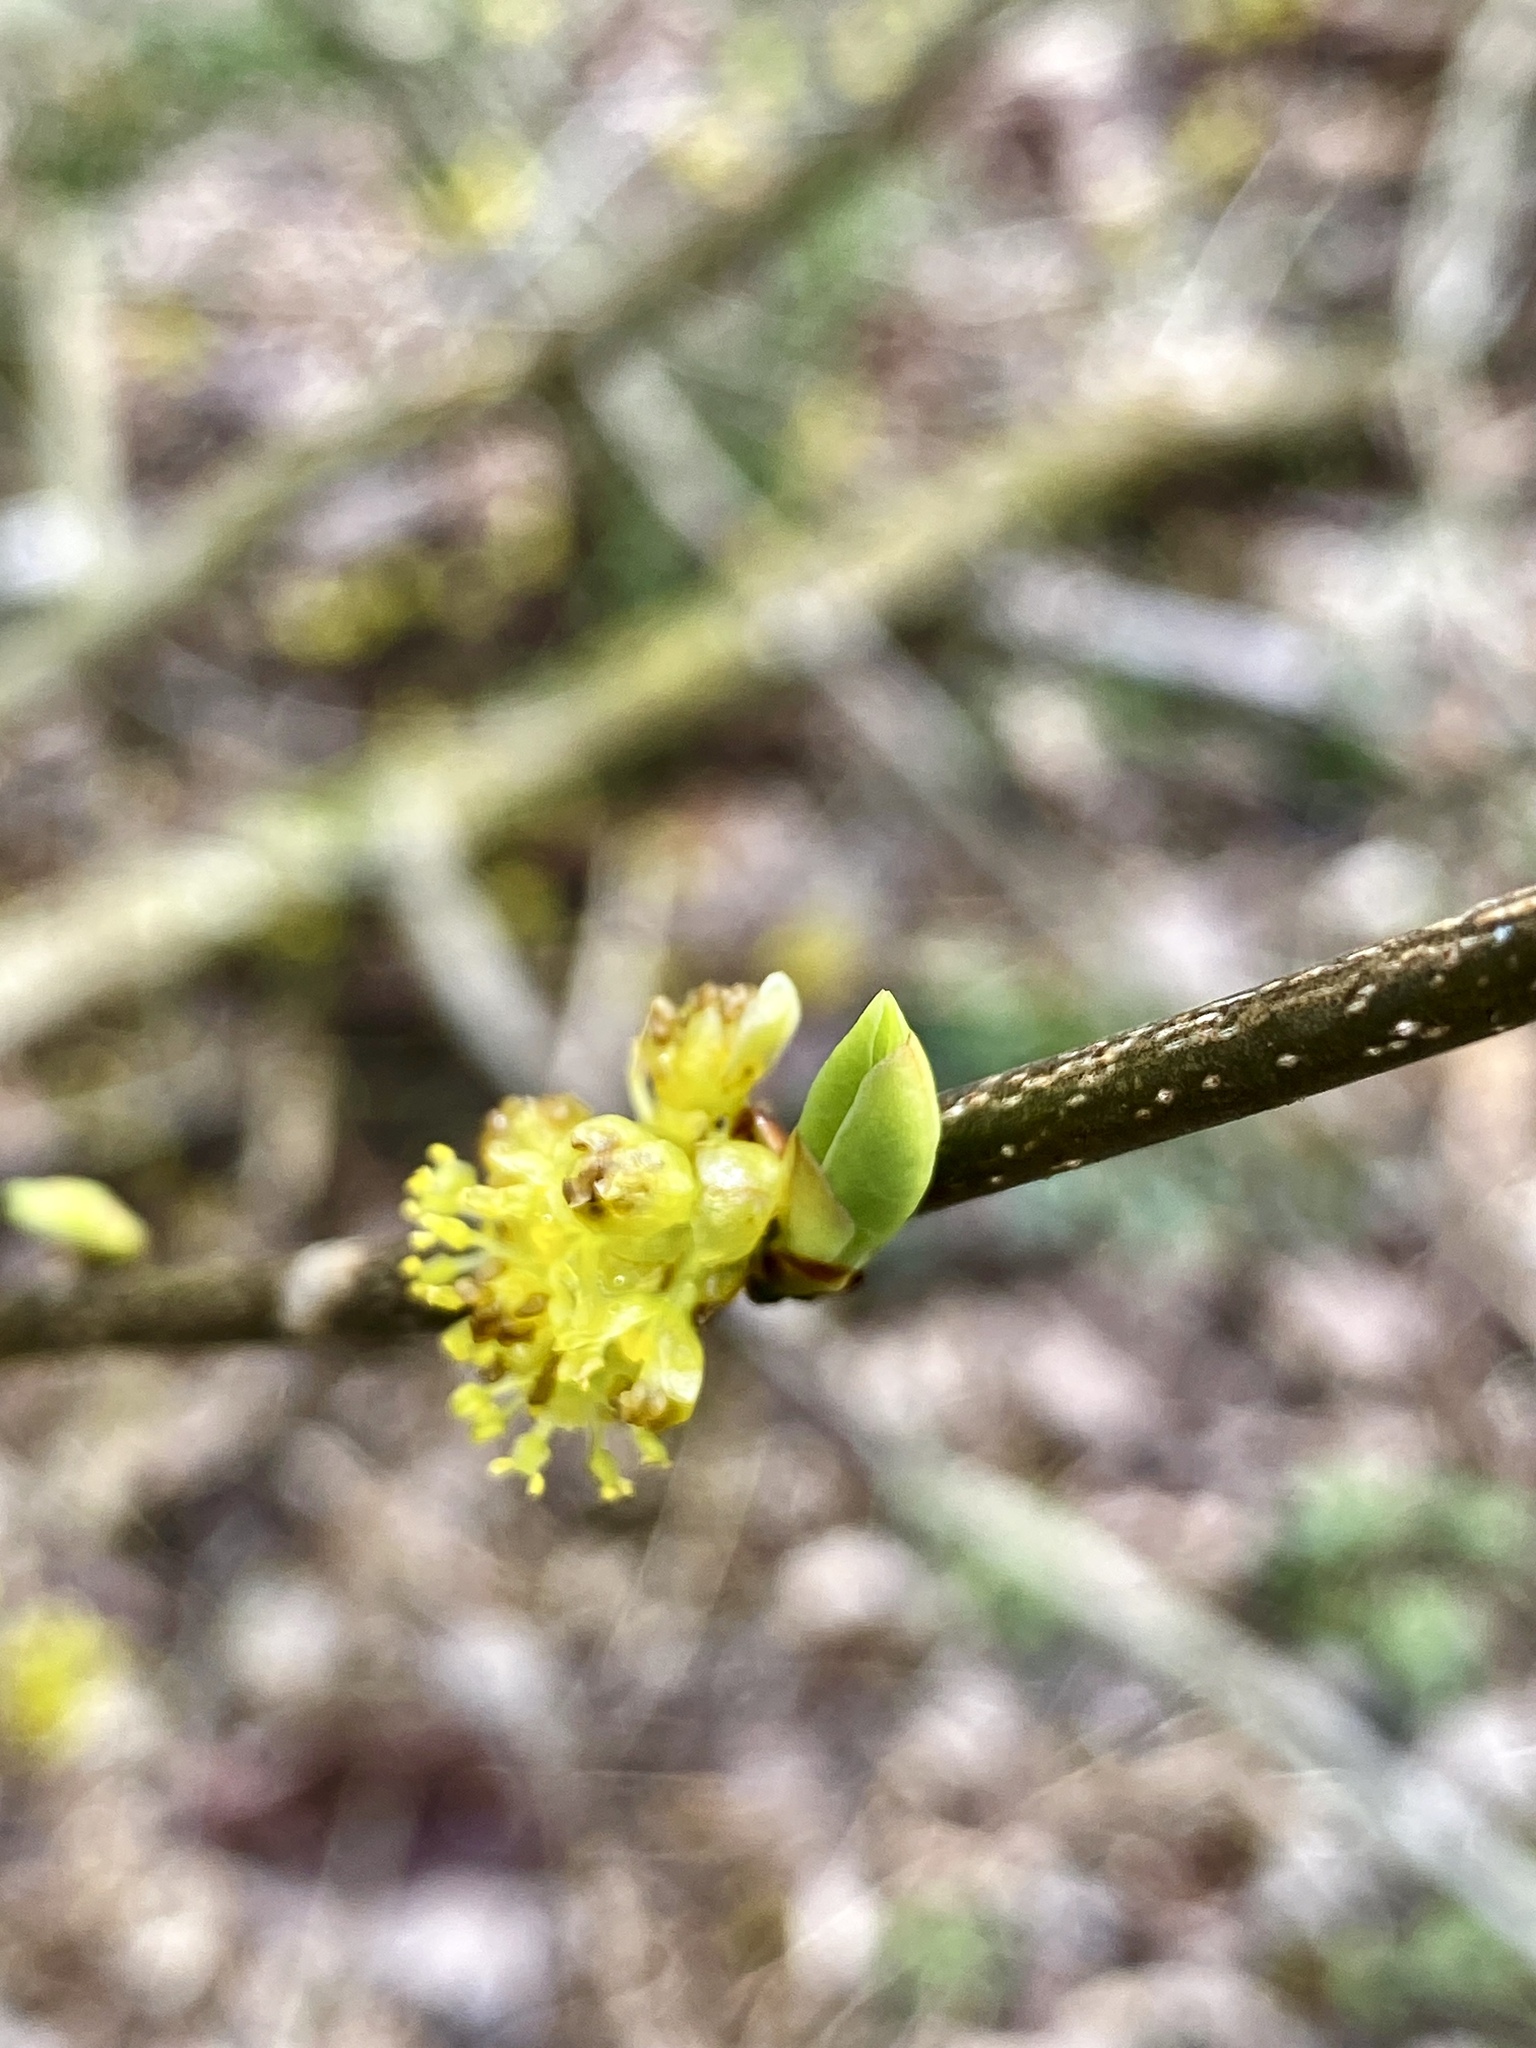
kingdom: Plantae
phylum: Tracheophyta
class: Magnoliopsida
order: Laurales
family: Lauraceae
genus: Lindera
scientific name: Lindera benzoin
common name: Spicebush
